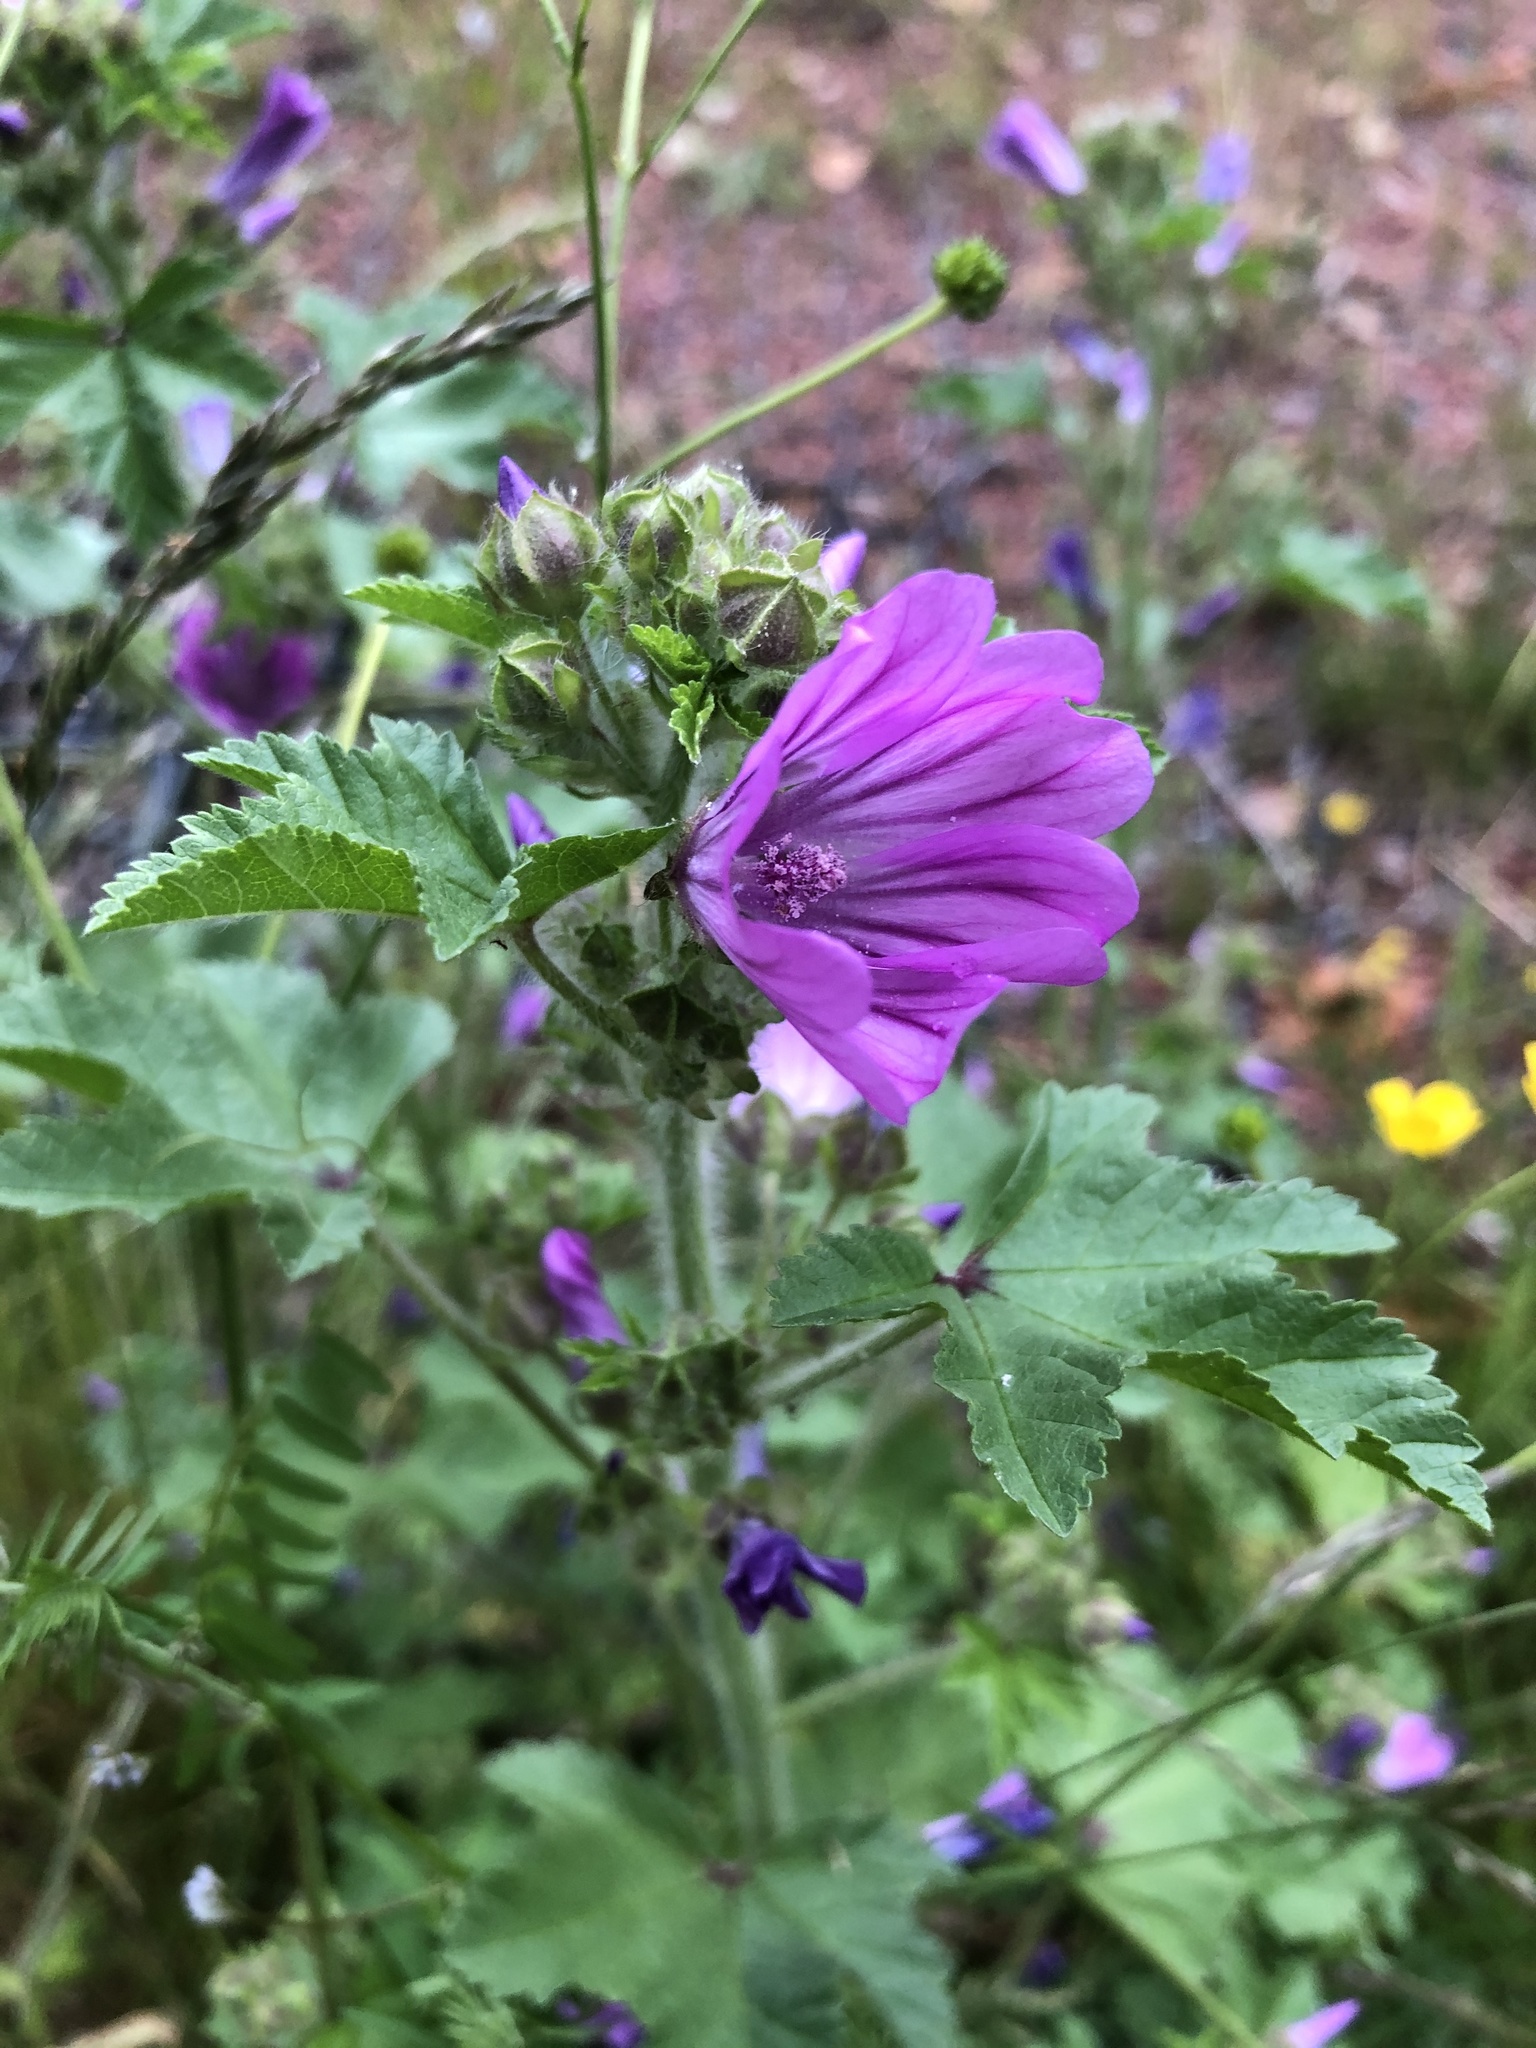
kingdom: Plantae
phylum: Tracheophyta
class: Magnoliopsida
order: Malvales
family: Malvaceae
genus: Malva
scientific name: Malva sylvestris
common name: Common mallow
